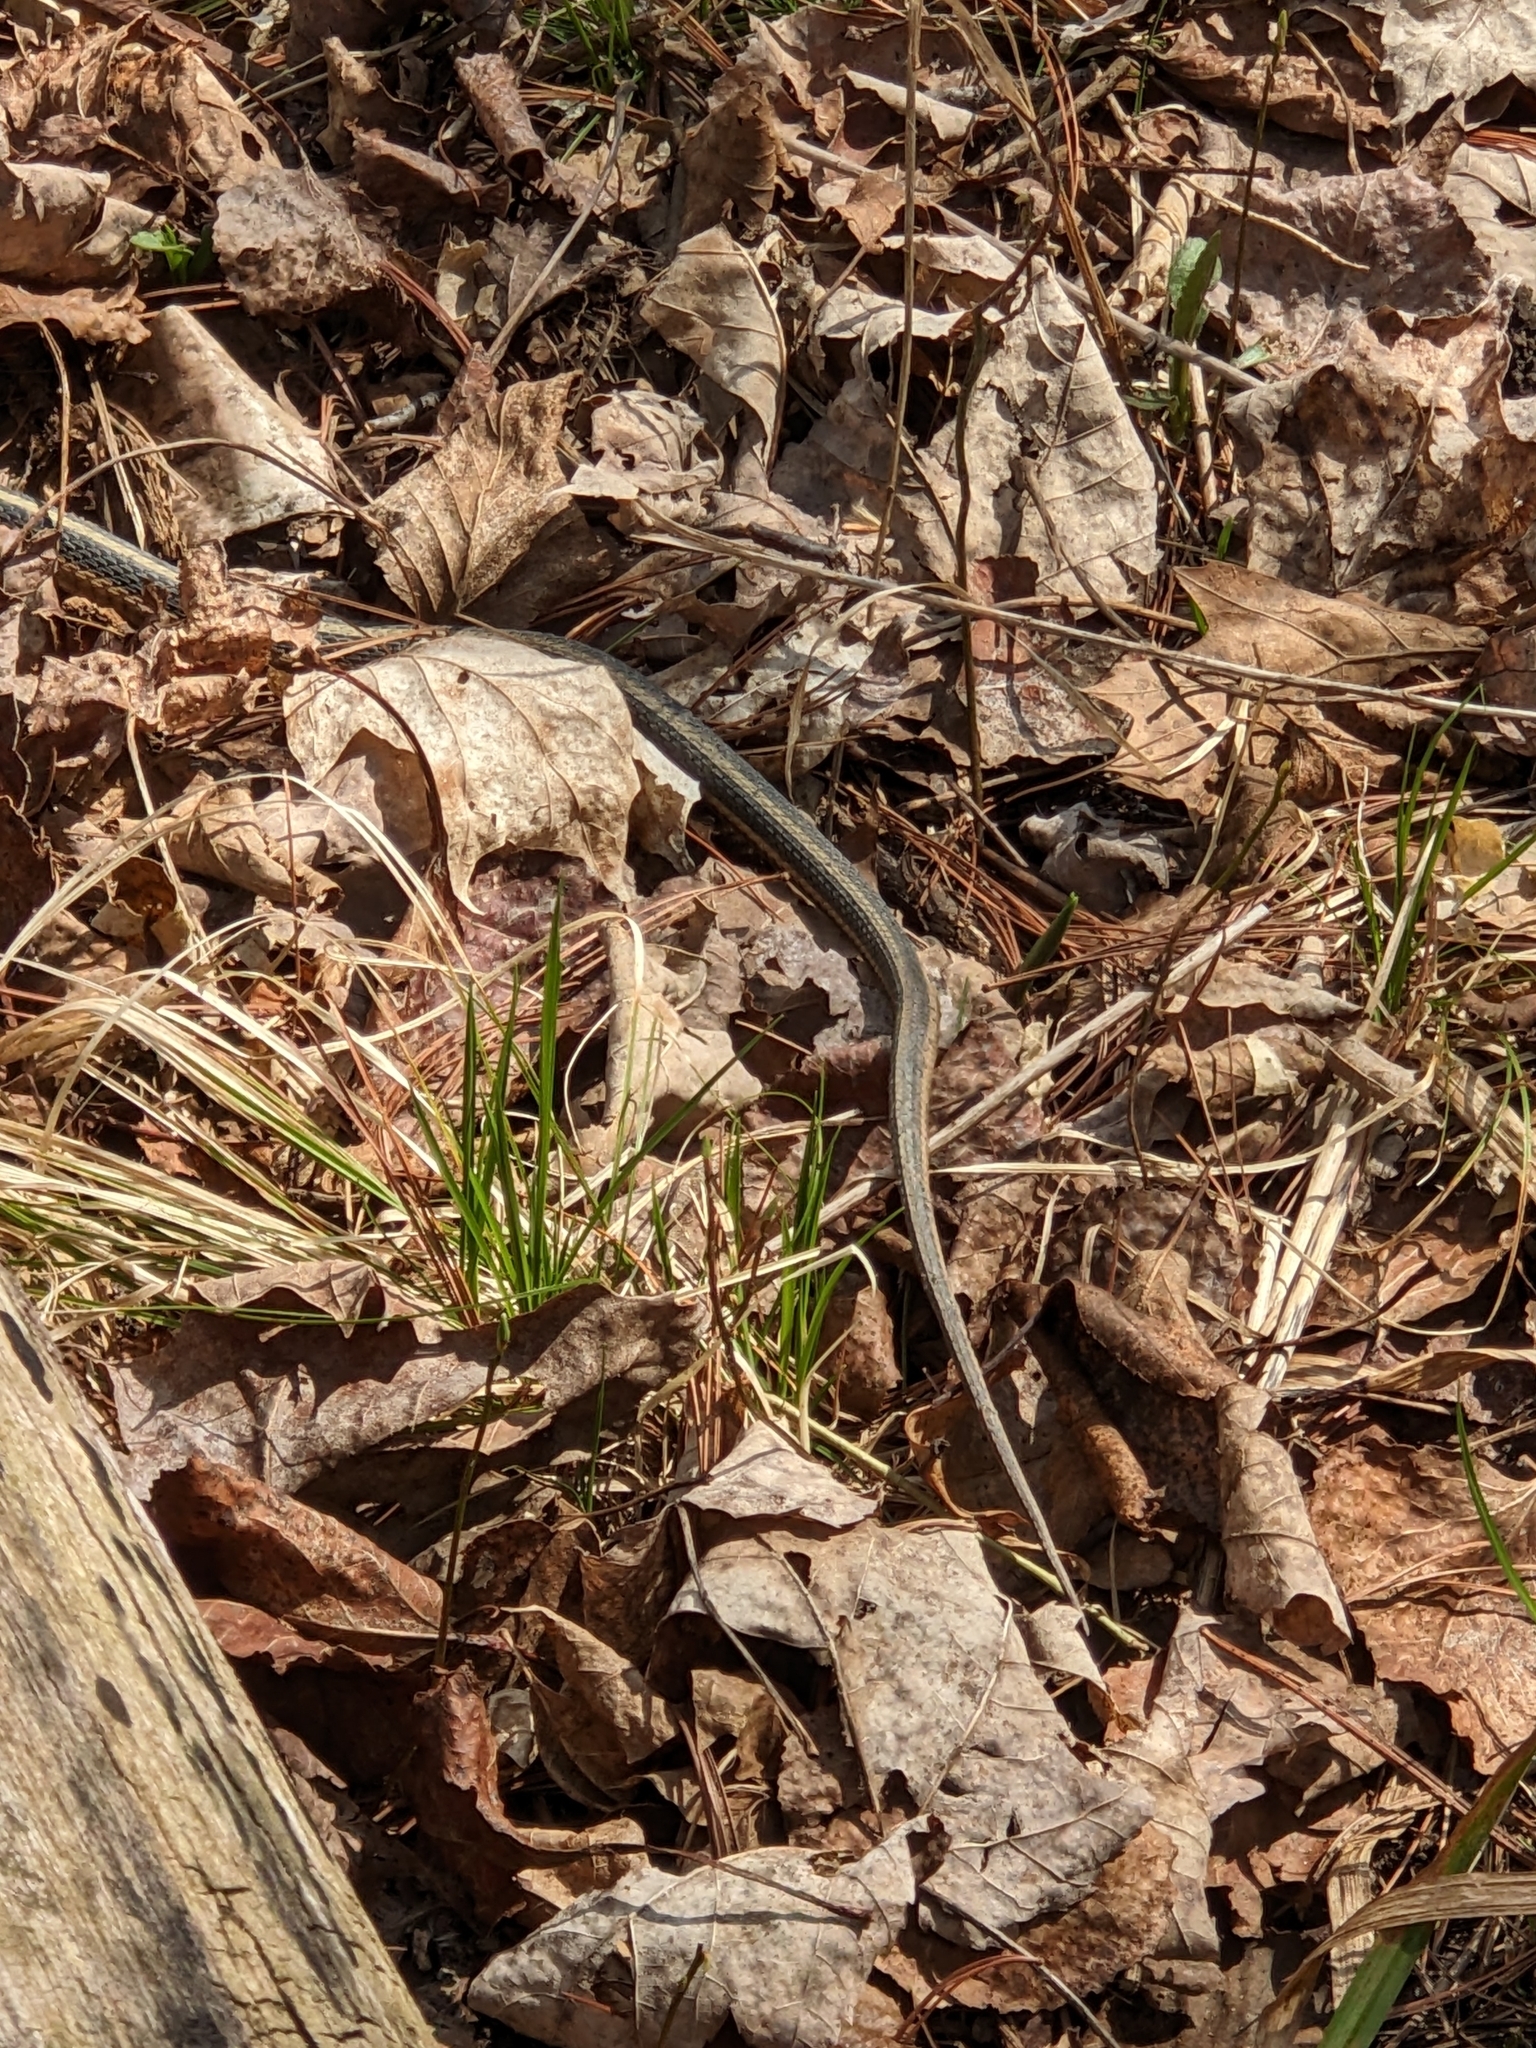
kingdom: Animalia
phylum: Chordata
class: Squamata
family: Colubridae
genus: Thamnophis
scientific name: Thamnophis sirtalis
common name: Common garter snake
